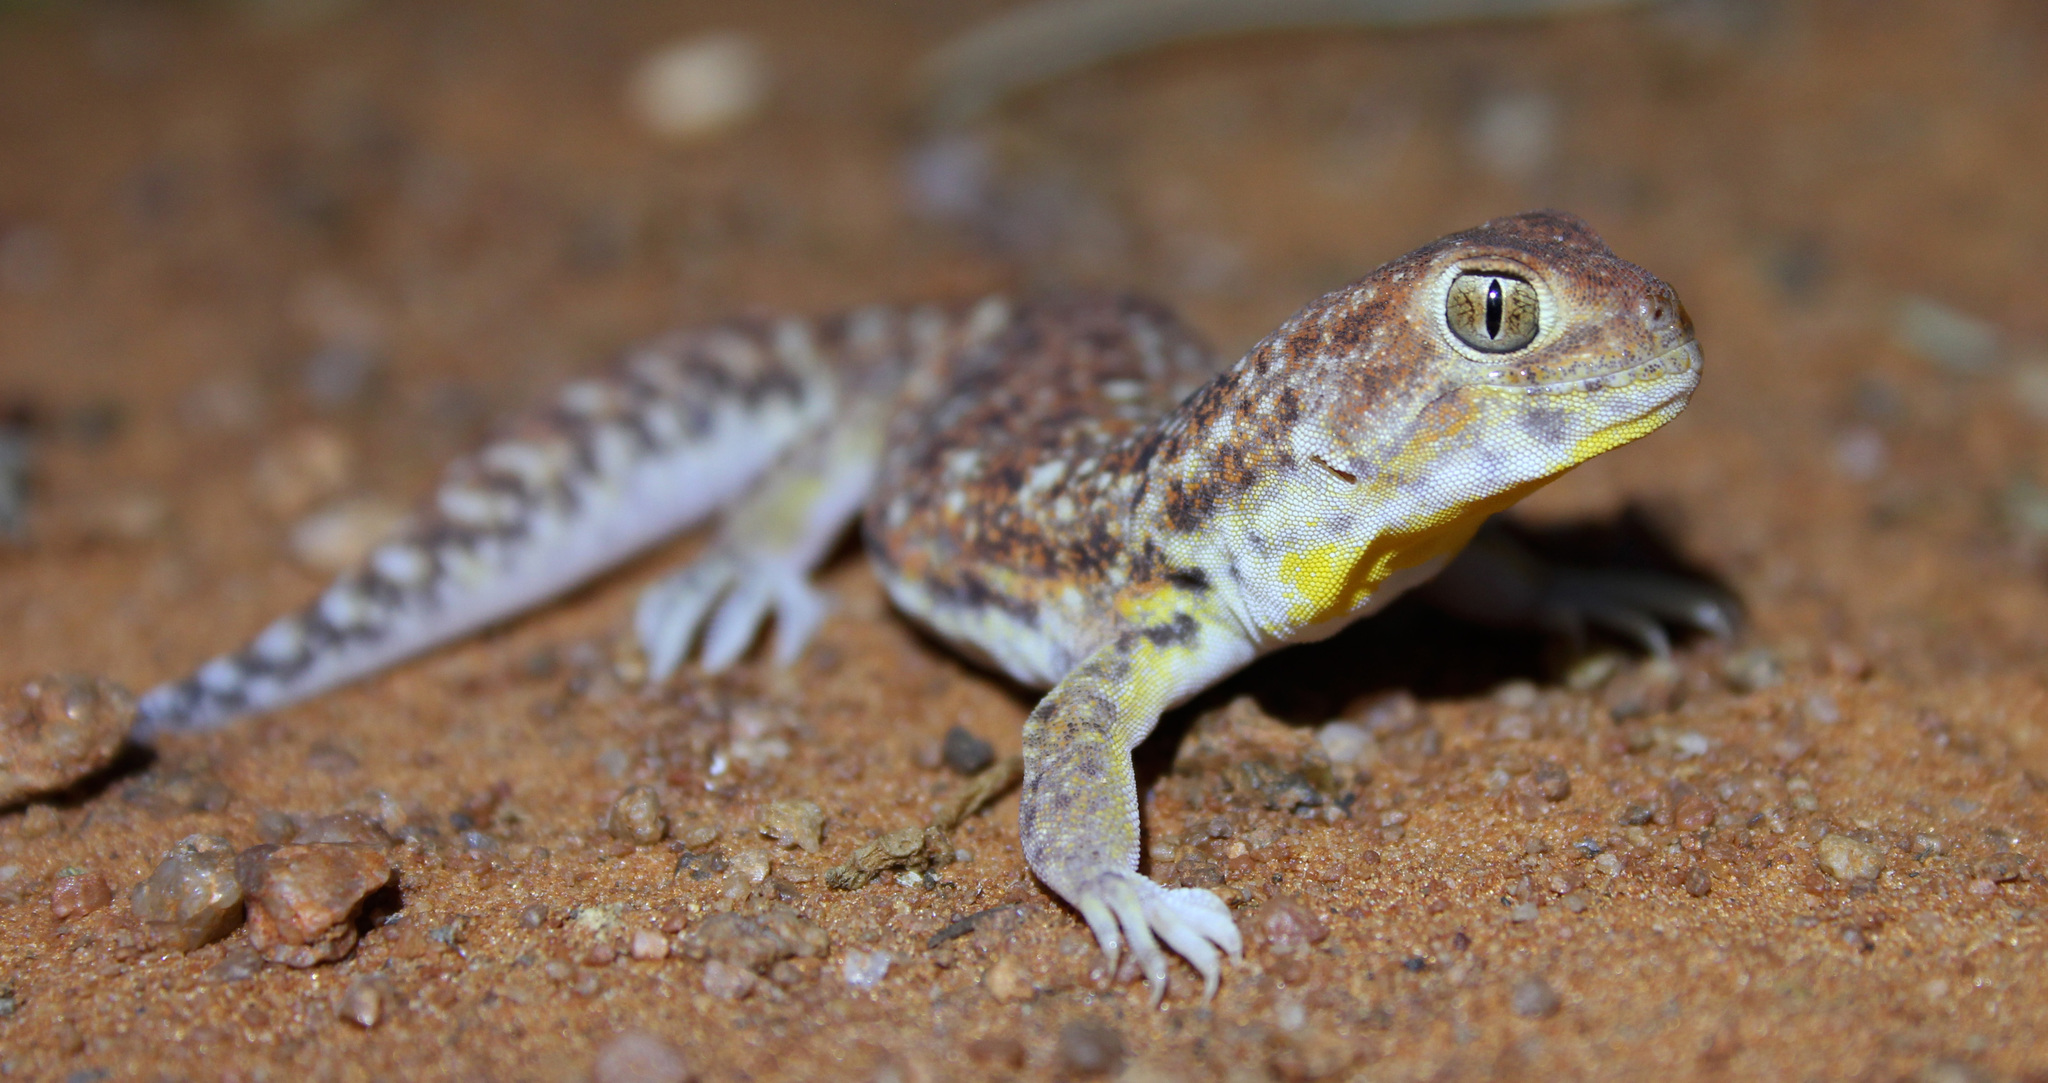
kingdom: Animalia
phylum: Chordata
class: Squamata
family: Gekkonidae
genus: Ptenopus
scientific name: Ptenopus garrulus
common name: Whistling gecko
